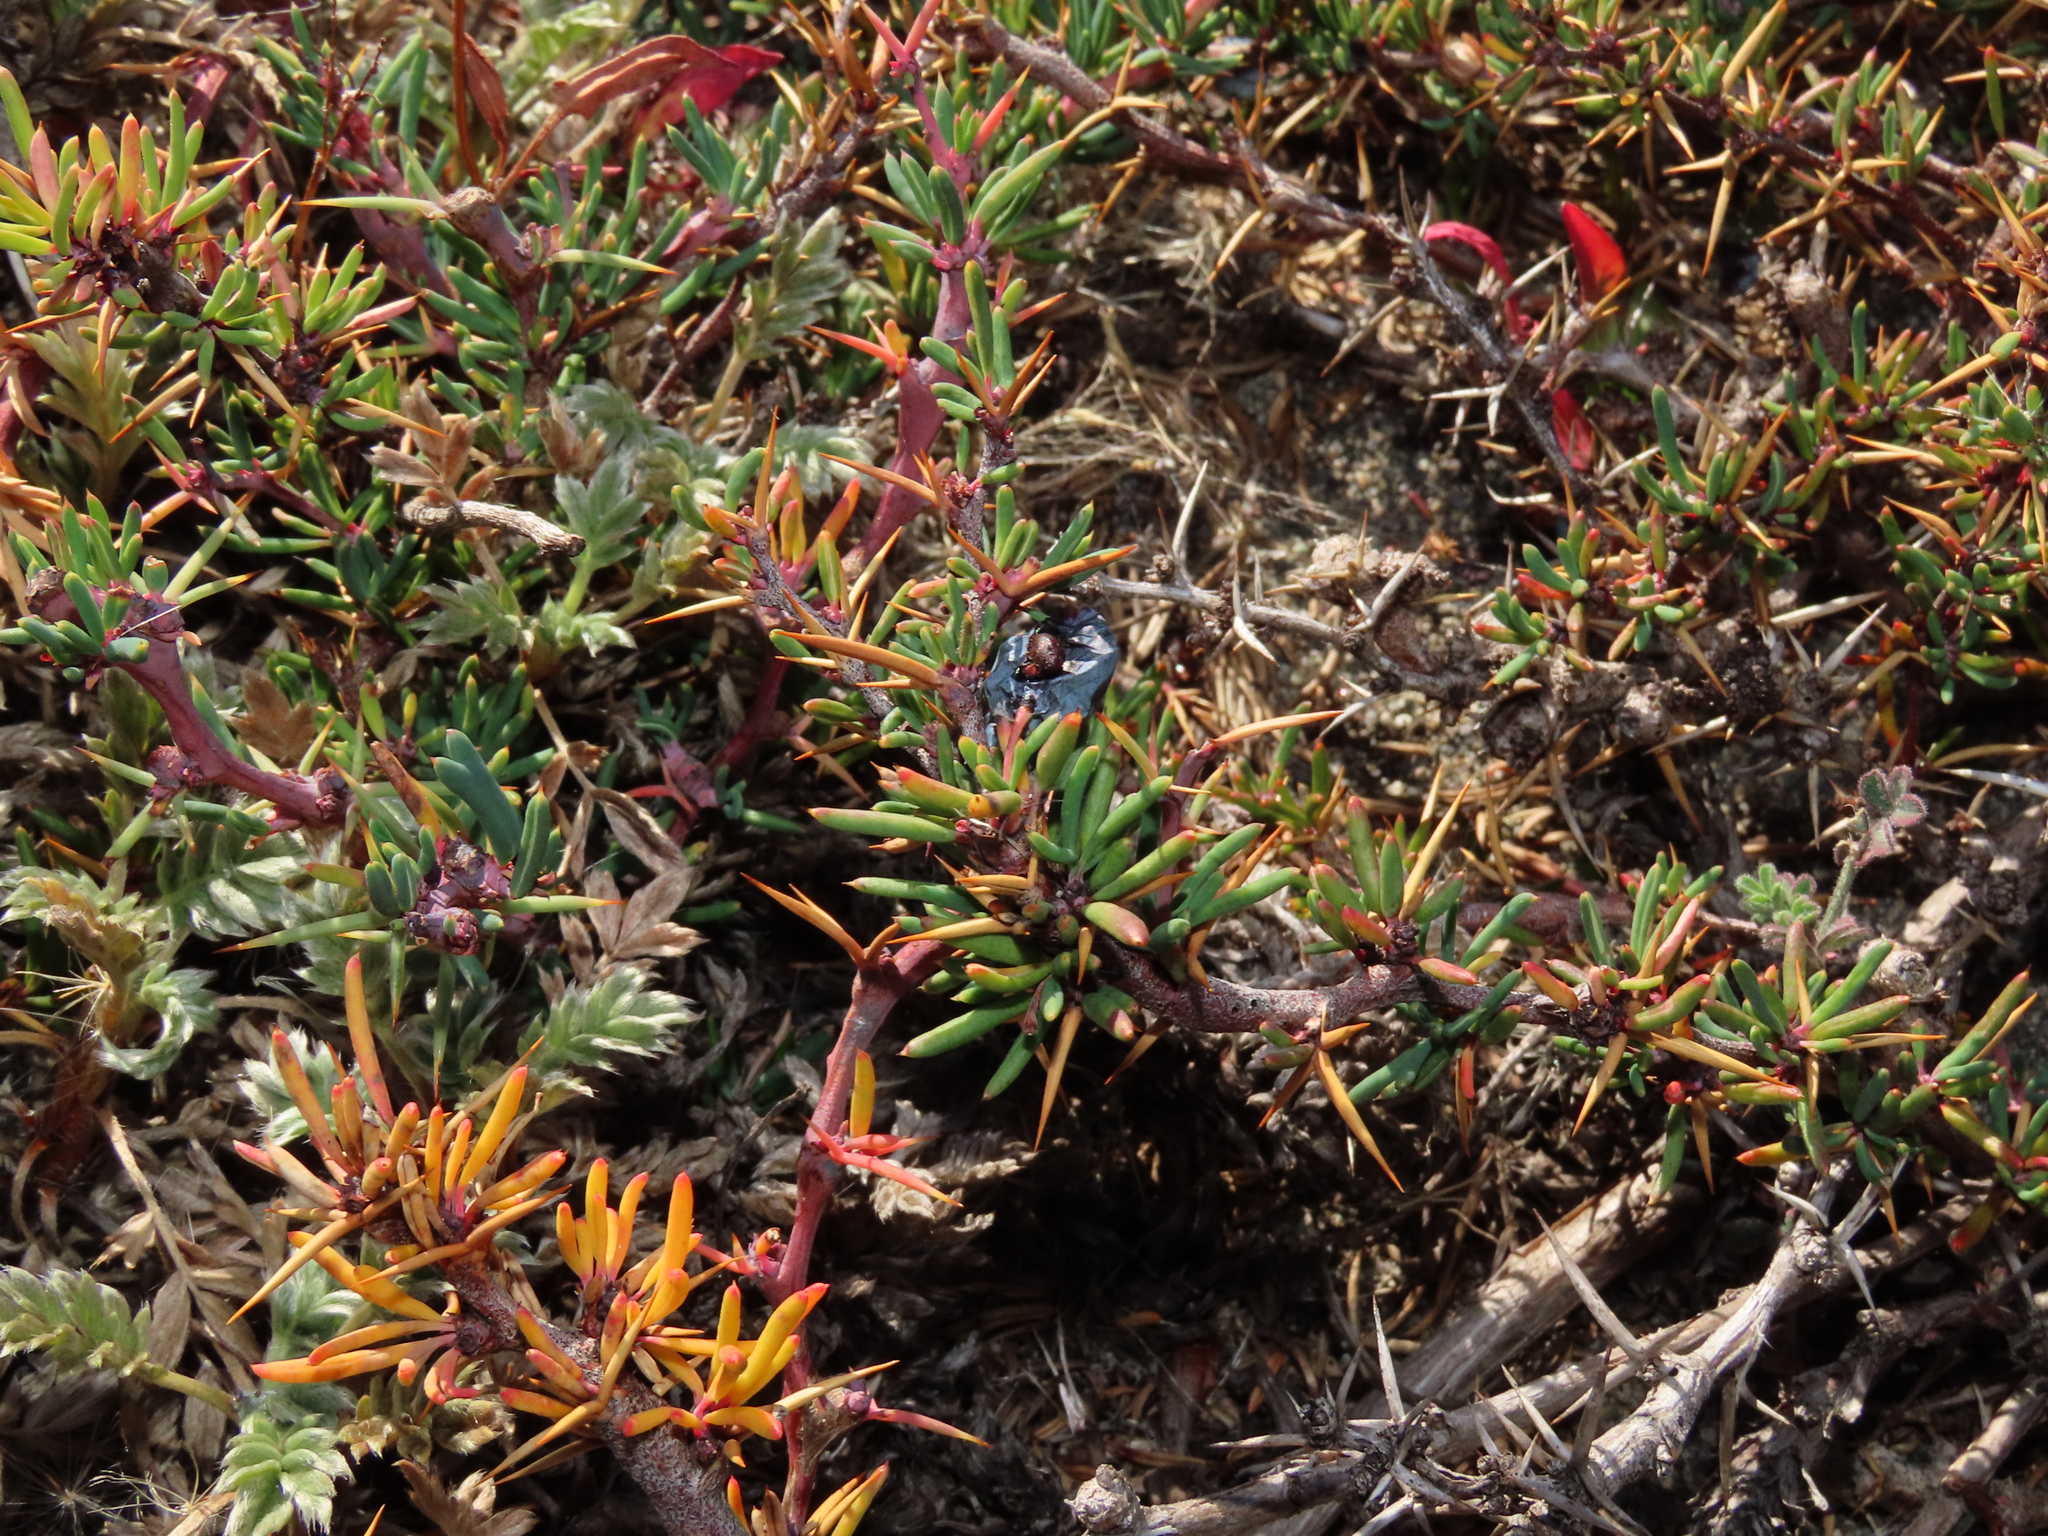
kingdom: Plantae
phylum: Tracheophyta
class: Magnoliopsida
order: Ranunculales
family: Berberidaceae
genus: Berberis
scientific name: Berberis empetrifolia
